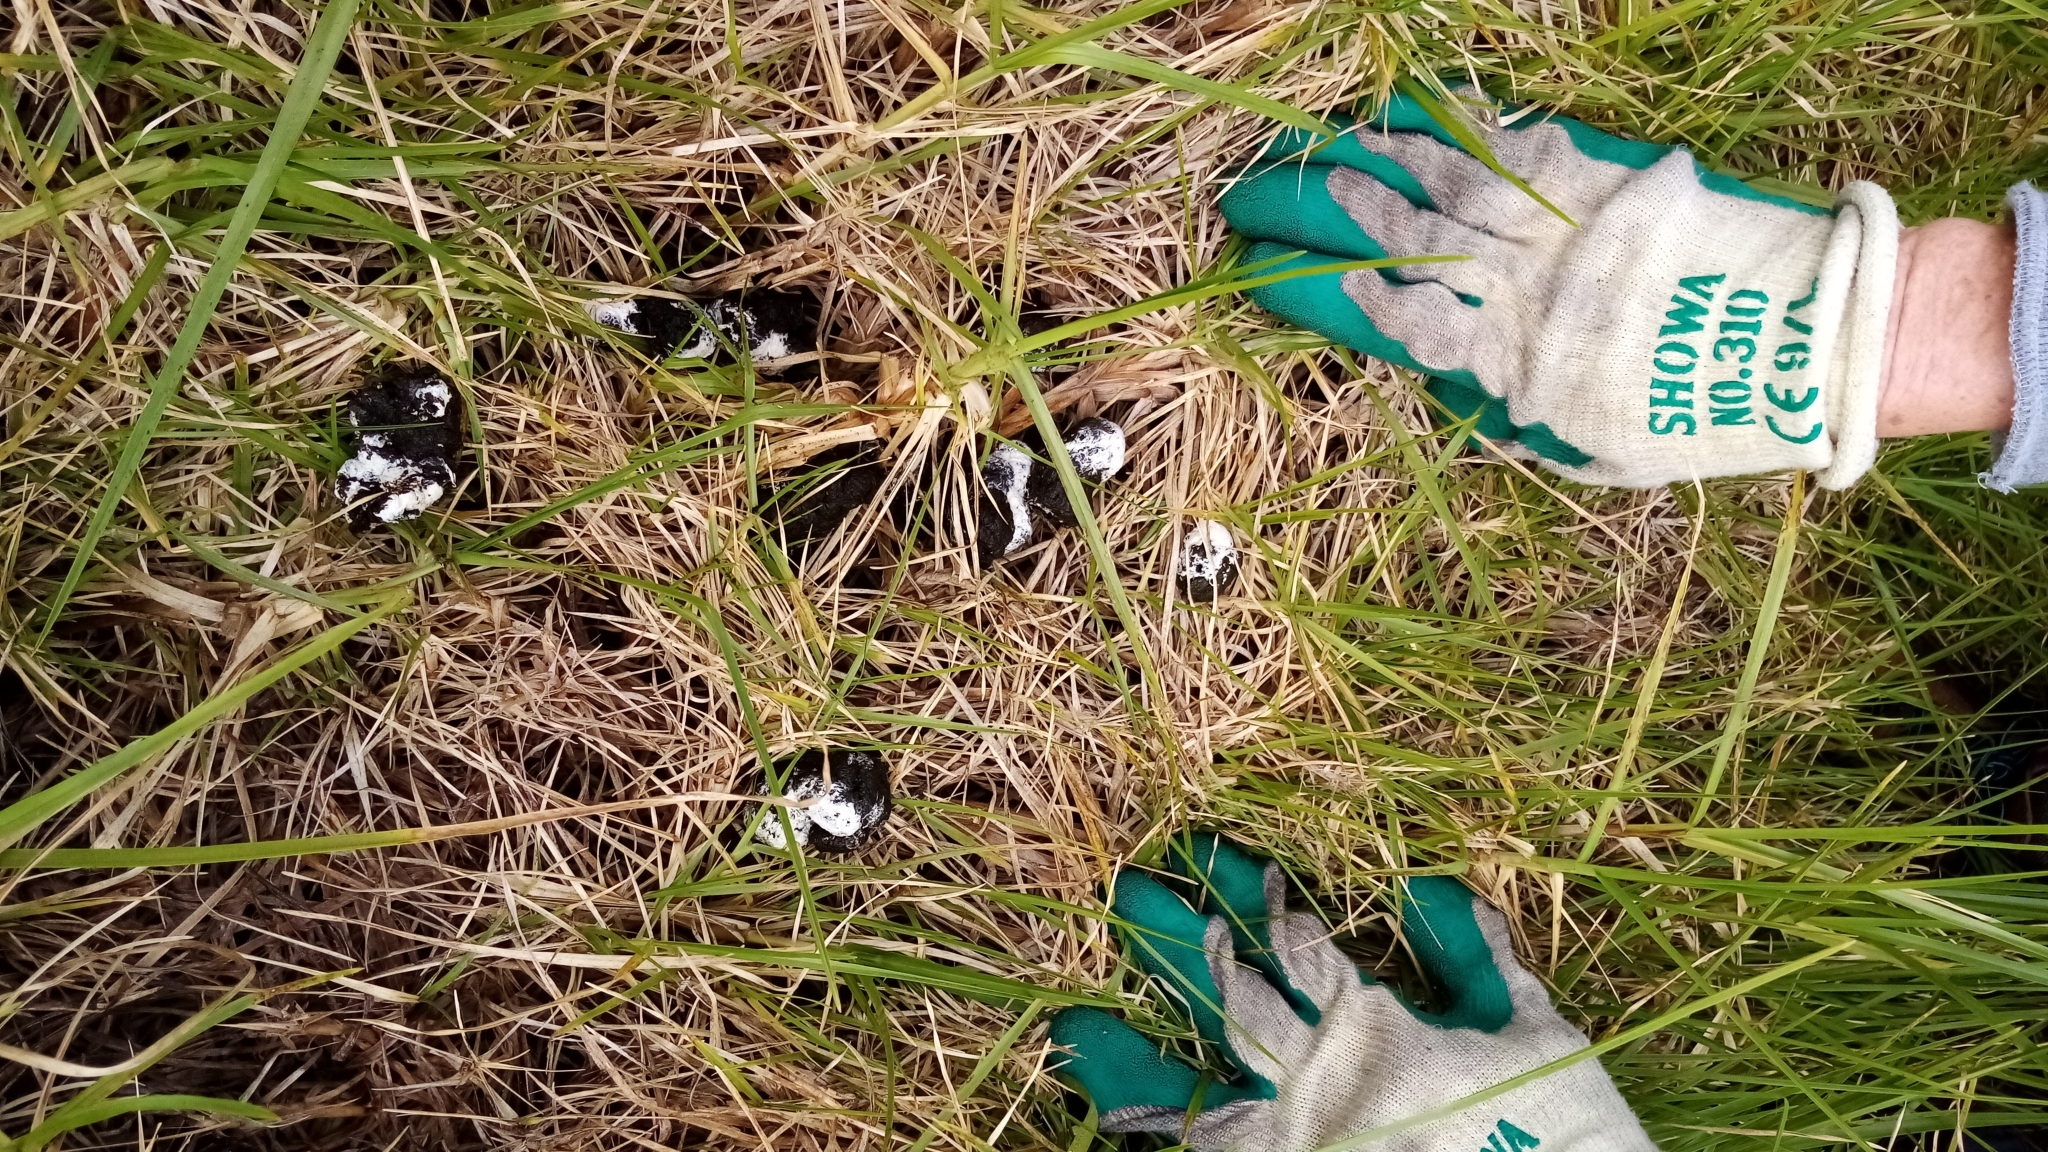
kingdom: Animalia
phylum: Chordata
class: Aves
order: Apterygiformes
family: Apterygidae
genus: Apteryx
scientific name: Apteryx owenii
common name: Little spotted kiwi
